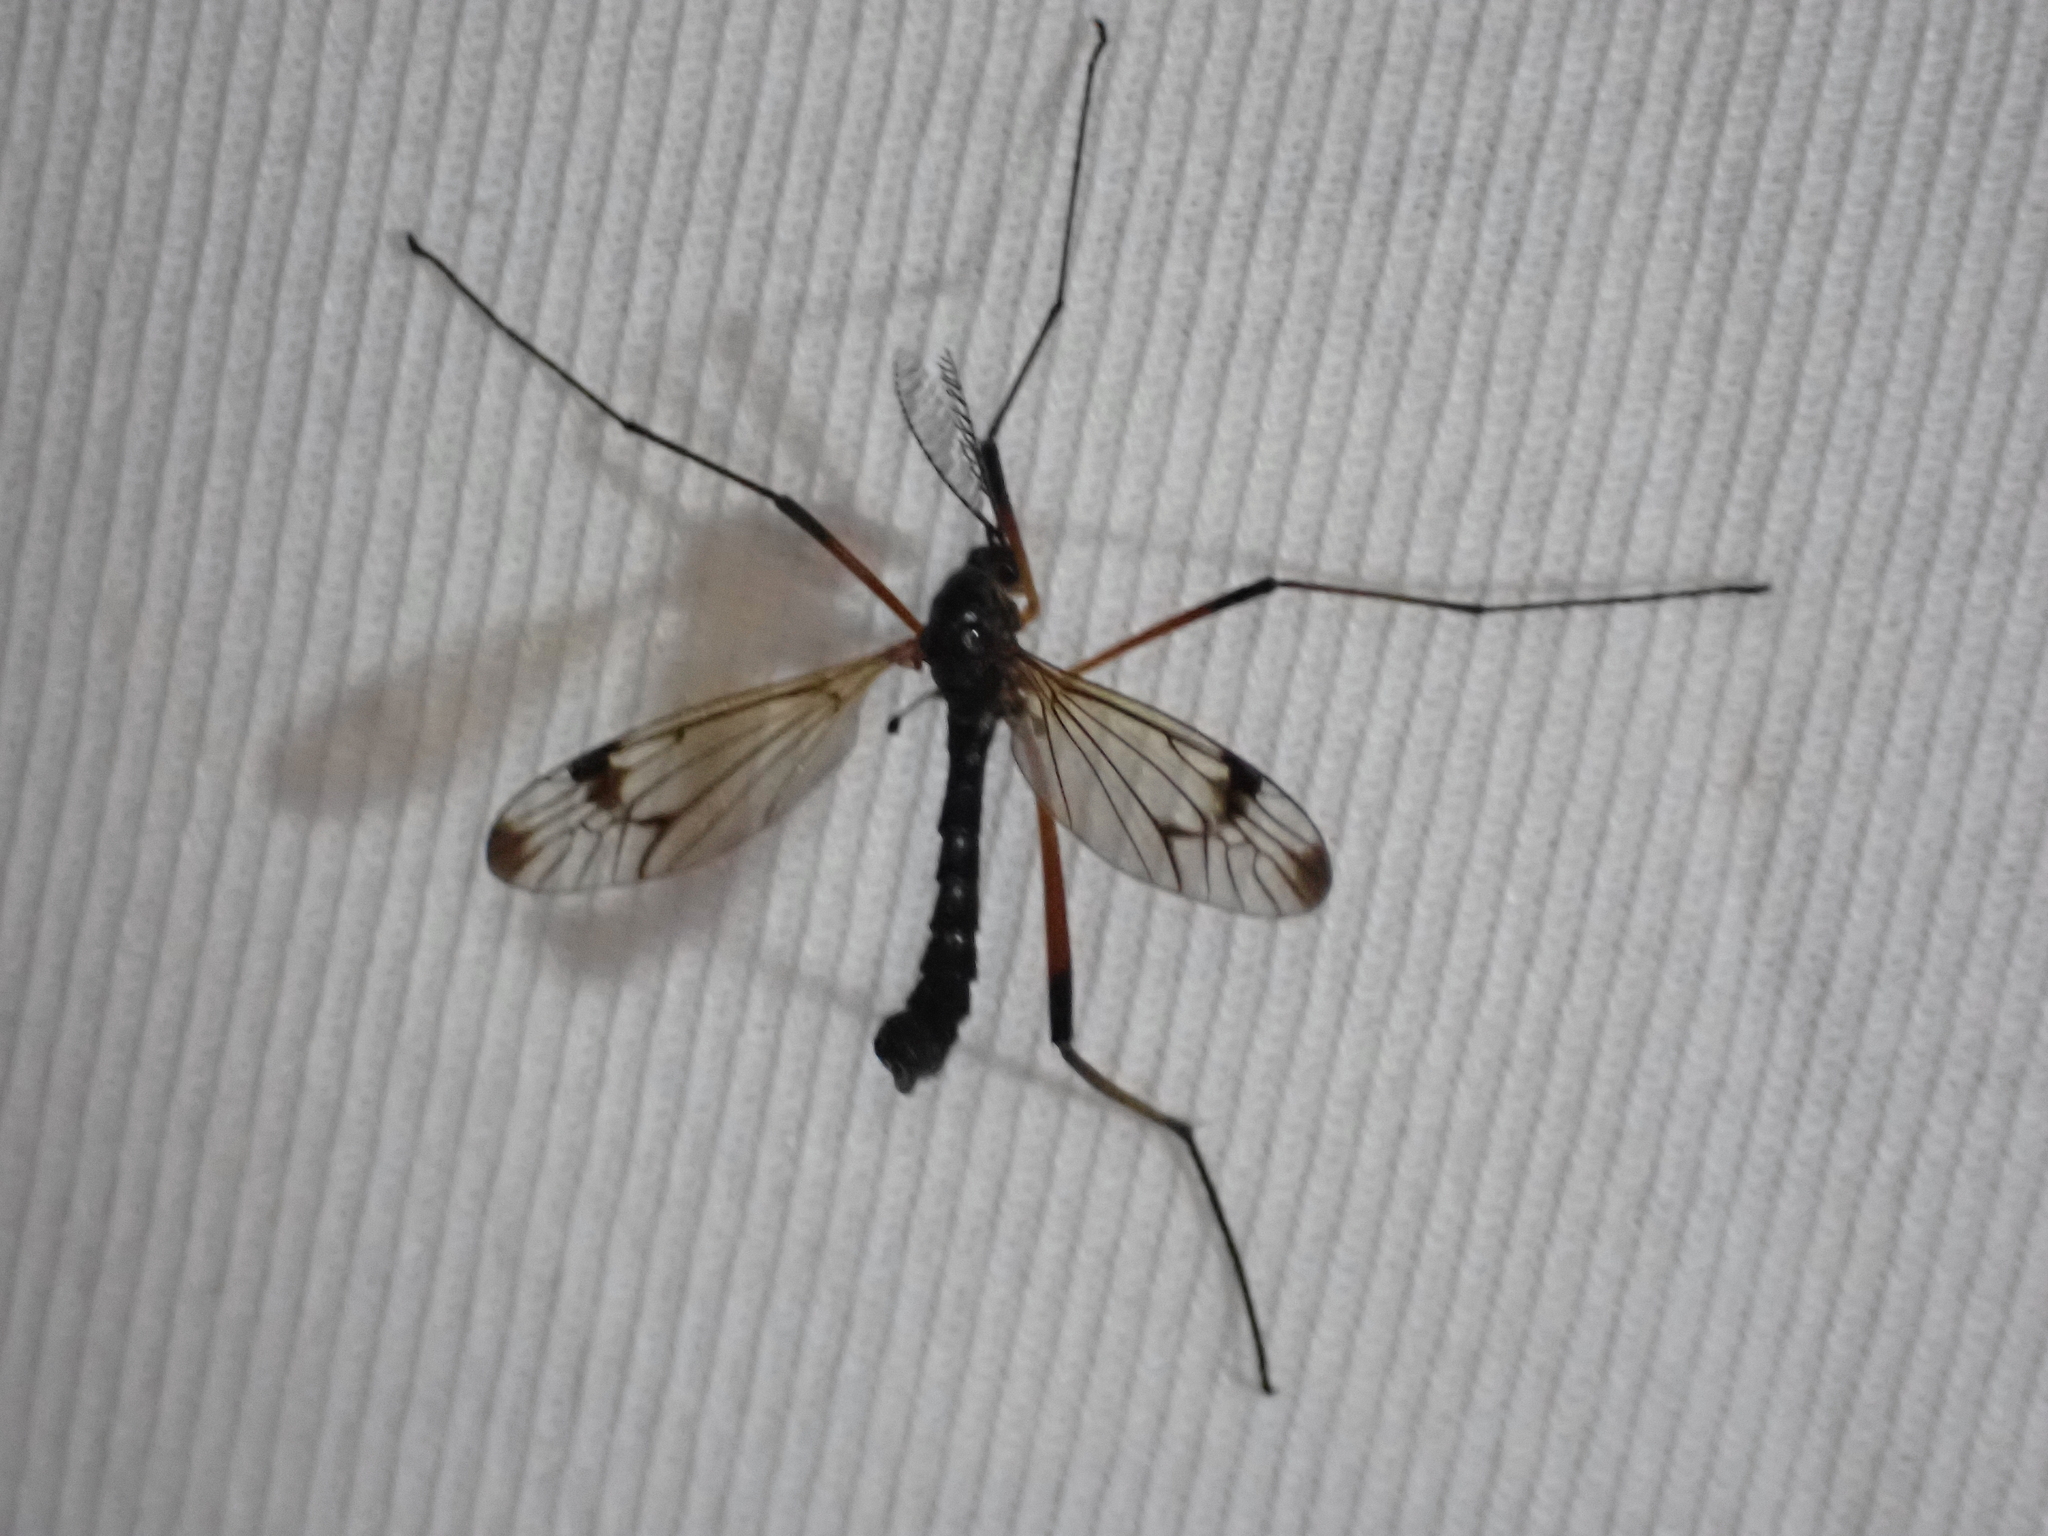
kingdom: Animalia
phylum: Arthropoda
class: Insecta
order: Diptera
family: Tipulidae
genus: Dictenidia
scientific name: Dictenidia bimaculata
